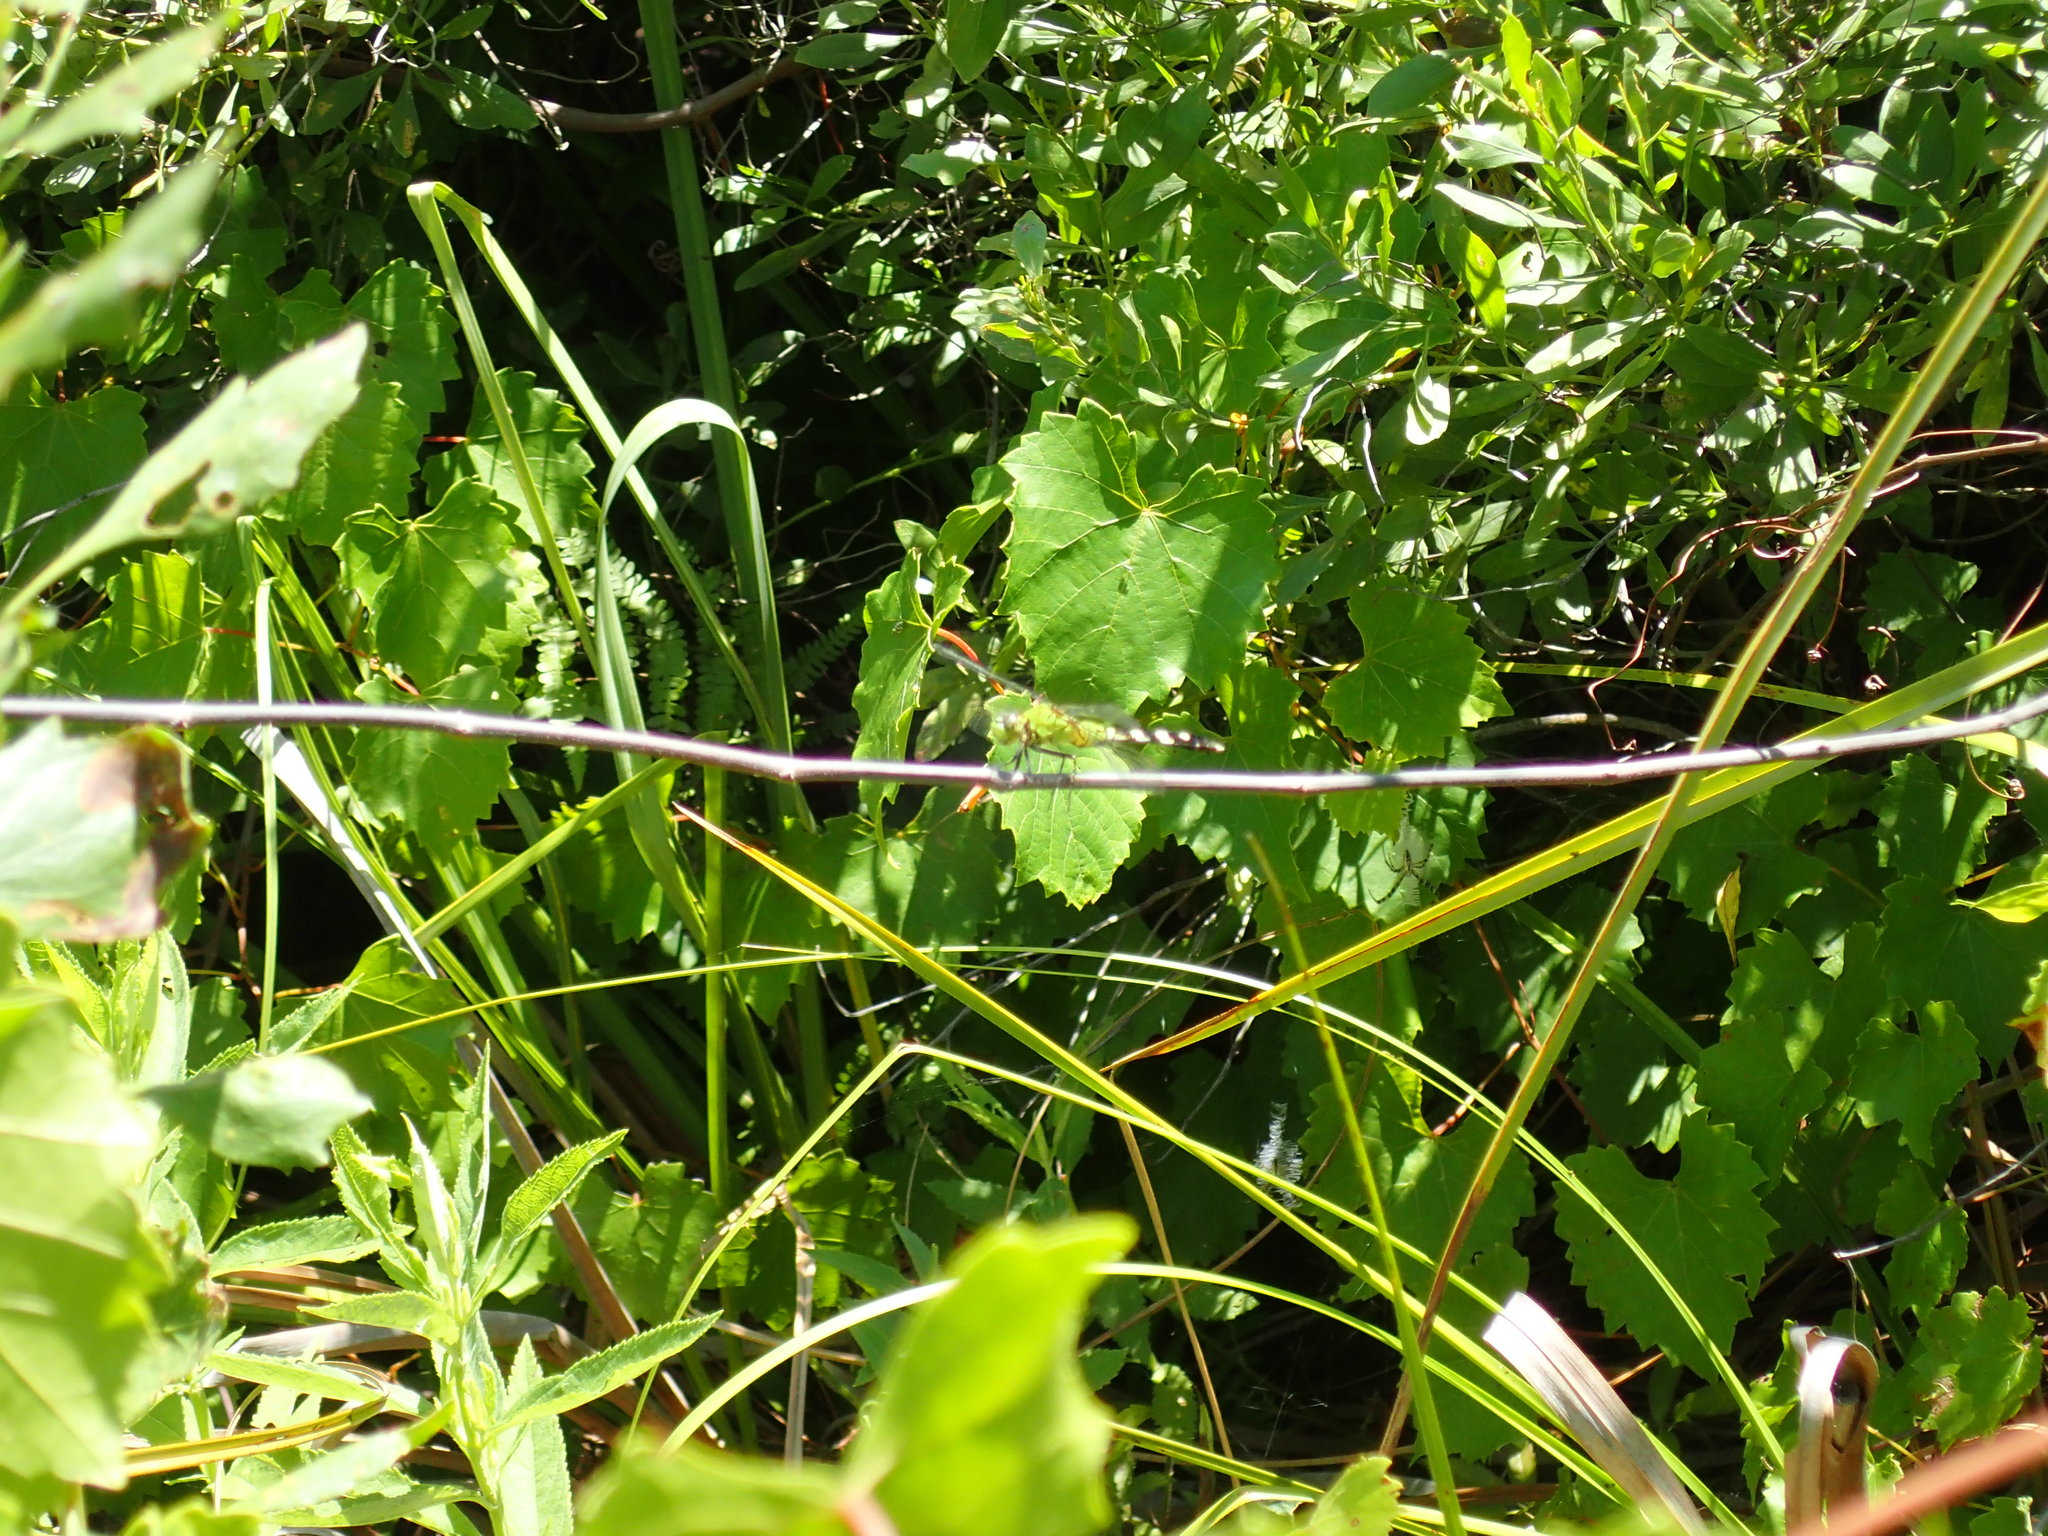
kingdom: Animalia
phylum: Arthropoda
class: Insecta
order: Odonata
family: Libellulidae
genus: Erythemis
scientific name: Erythemis simplicicollis
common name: Eastern pondhawk
